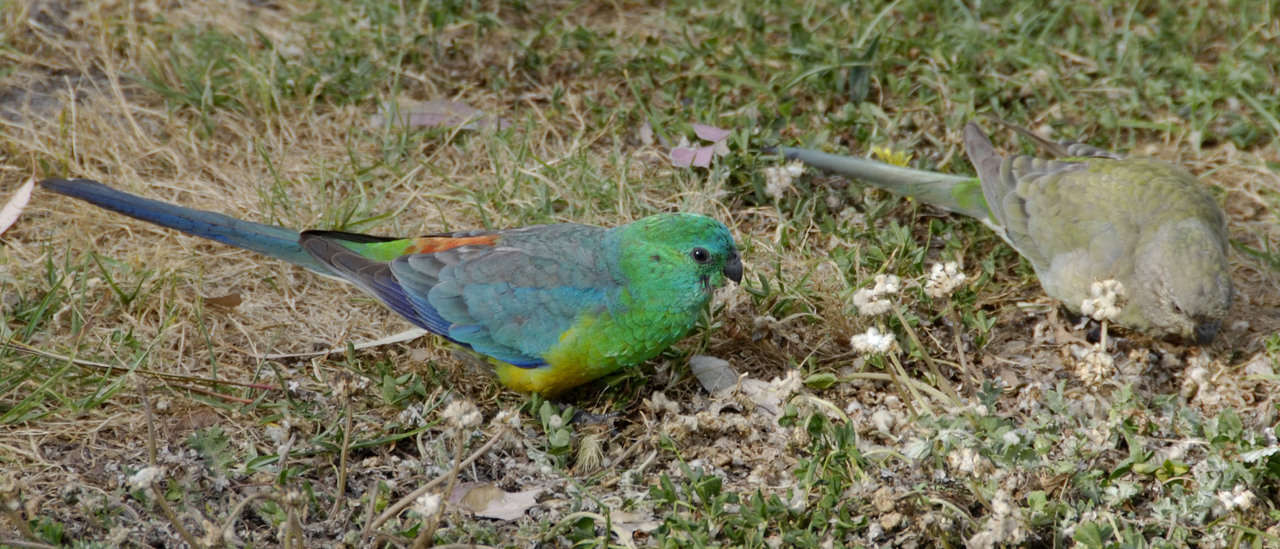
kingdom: Animalia
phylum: Chordata
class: Aves
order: Psittaciformes
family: Psittacidae
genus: Psephotus
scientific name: Psephotus haematonotus
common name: Red-rumped parrot
